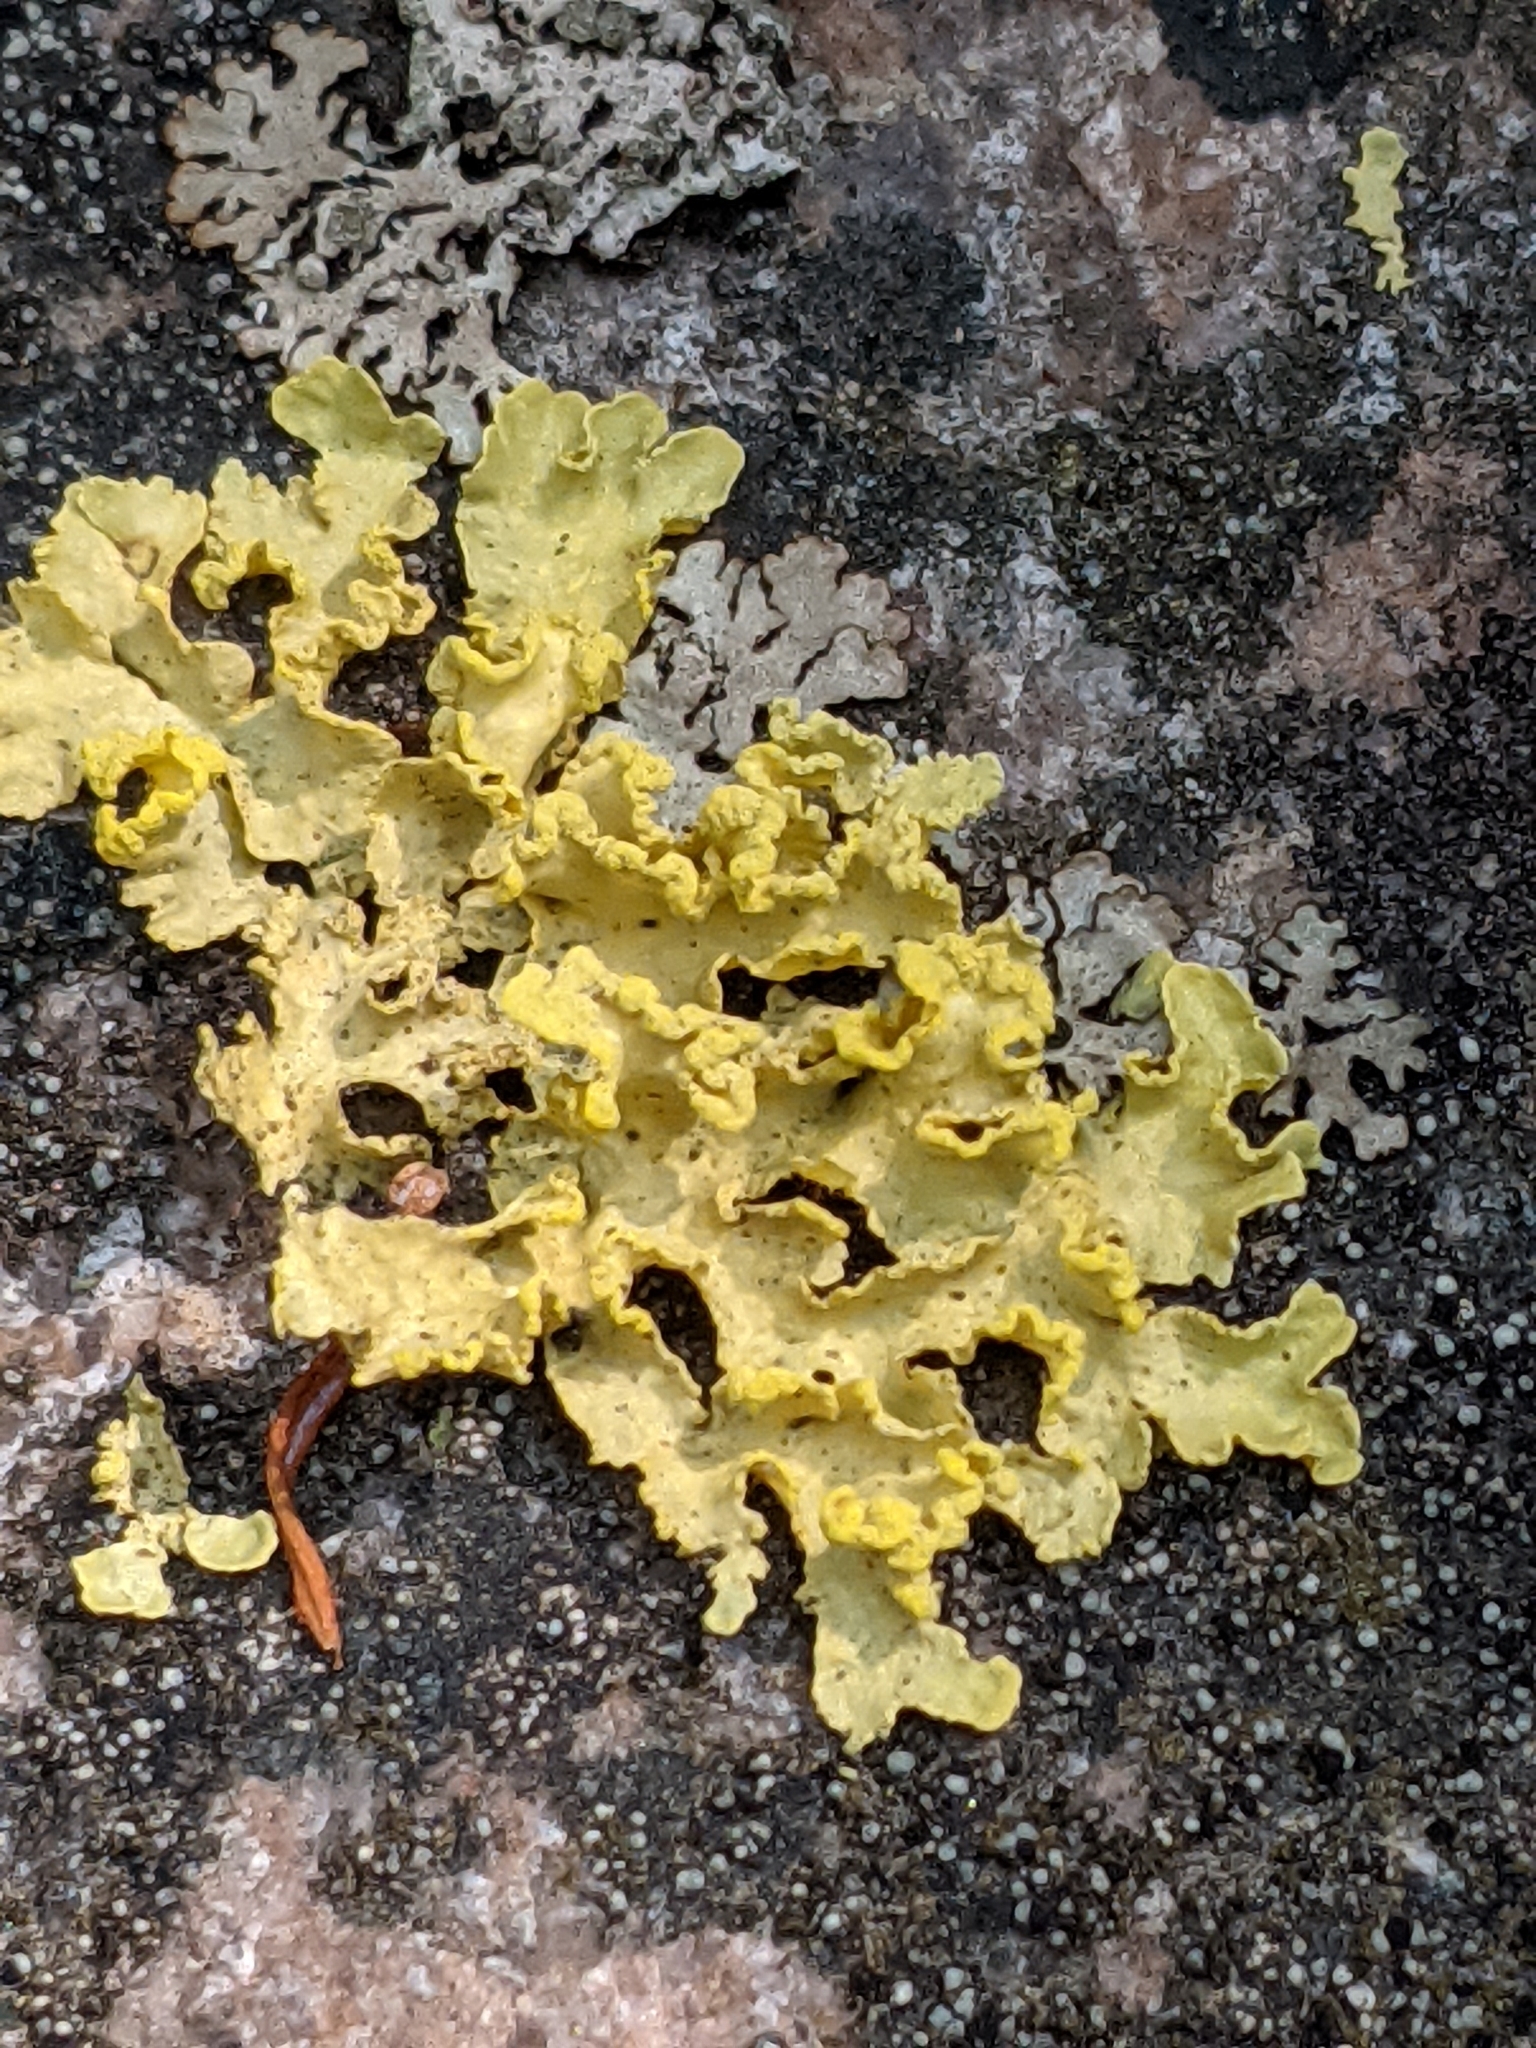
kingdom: Fungi
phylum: Ascomycota
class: Lecanoromycetes
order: Lecanorales
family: Parmeliaceae
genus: Vulpicida
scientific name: Vulpicida pinastri
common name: Powdered sunshine lichen
